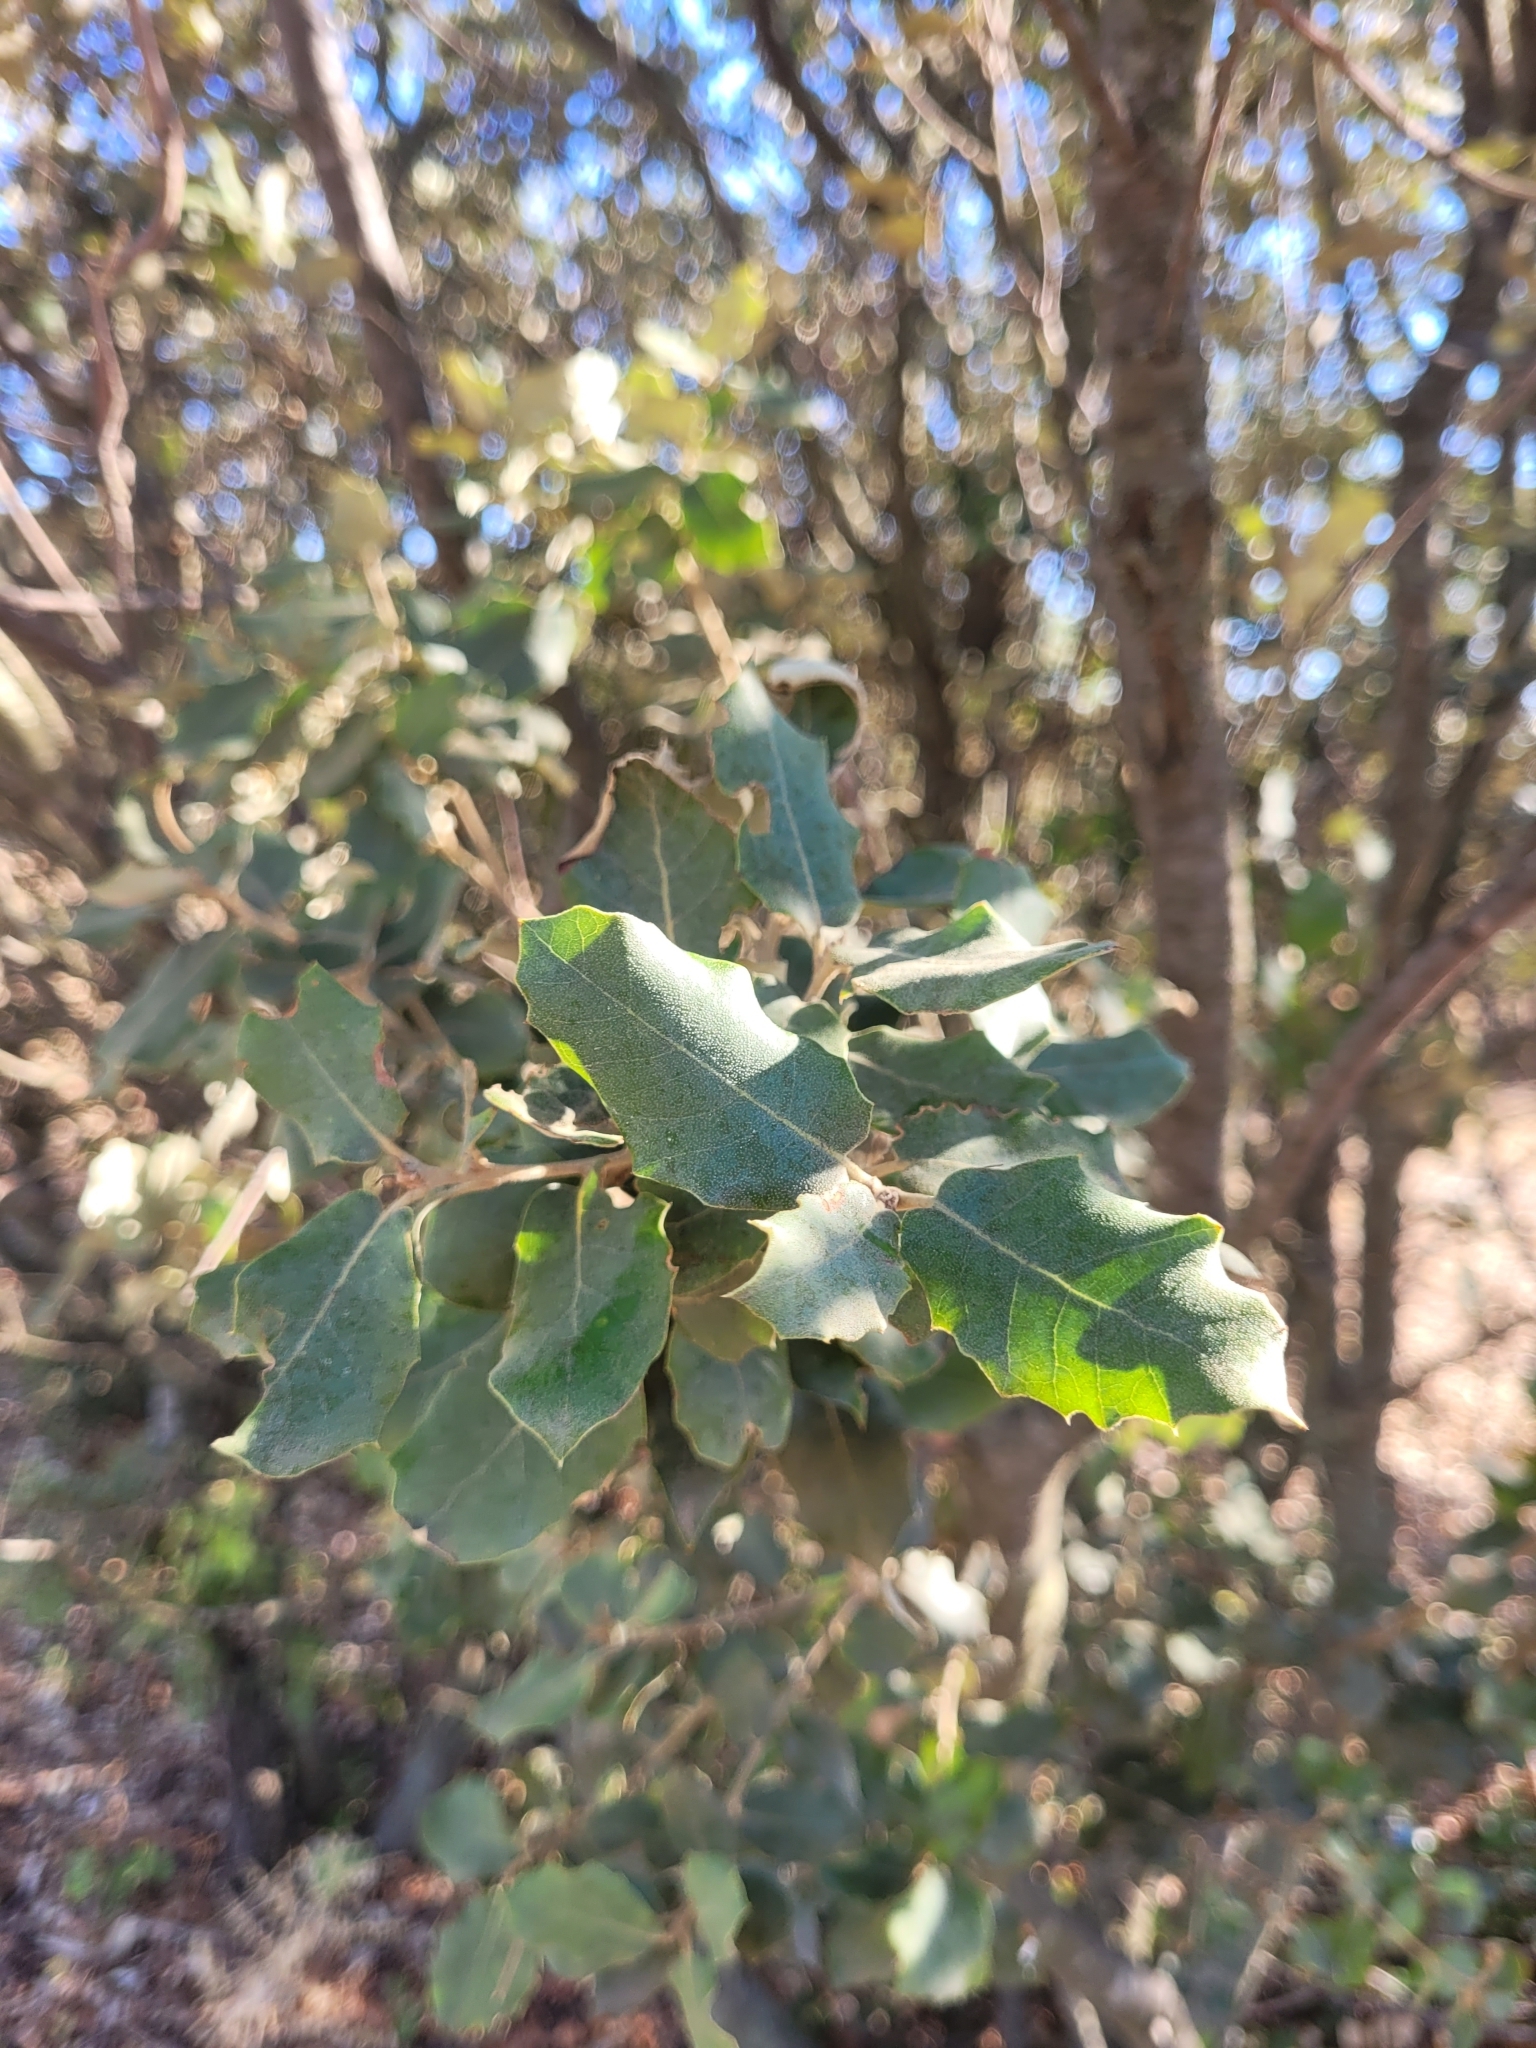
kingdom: Plantae
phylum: Tracheophyta
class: Magnoliopsida
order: Fagales
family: Fagaceae
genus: Quercus
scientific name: Quercus ilex
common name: Evergreen oak
